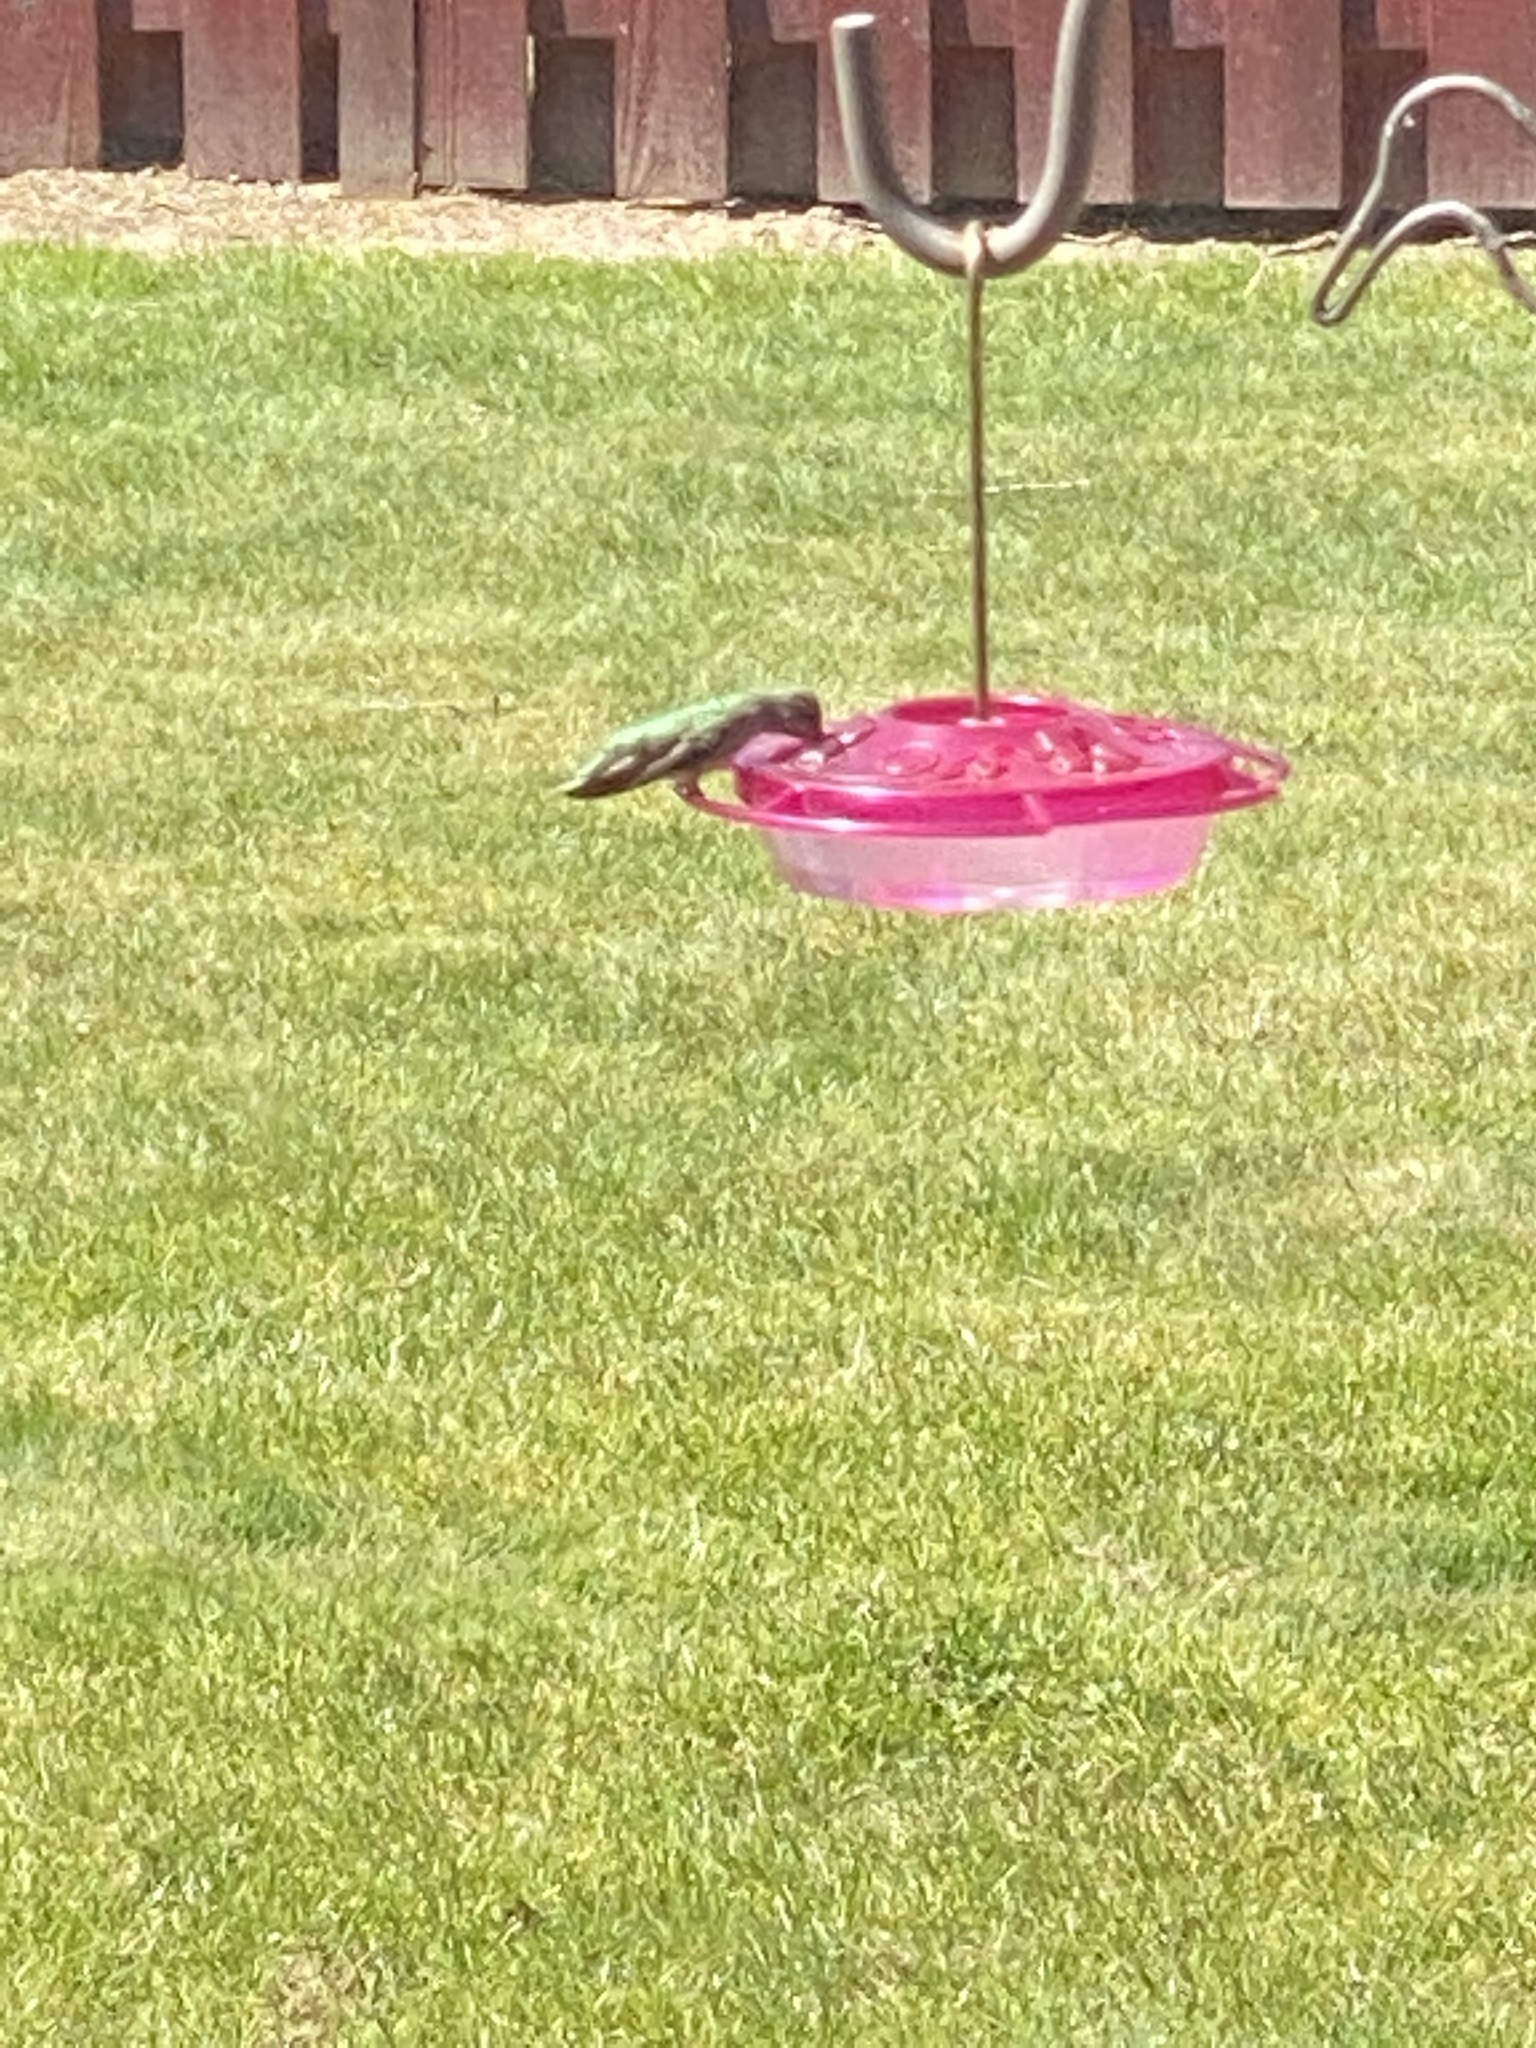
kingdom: Animalia
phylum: Chordata
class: Aves
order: Apodiformes
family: Trochilidae
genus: Calypte
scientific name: Calypte anna
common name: Anna's hummingbird
